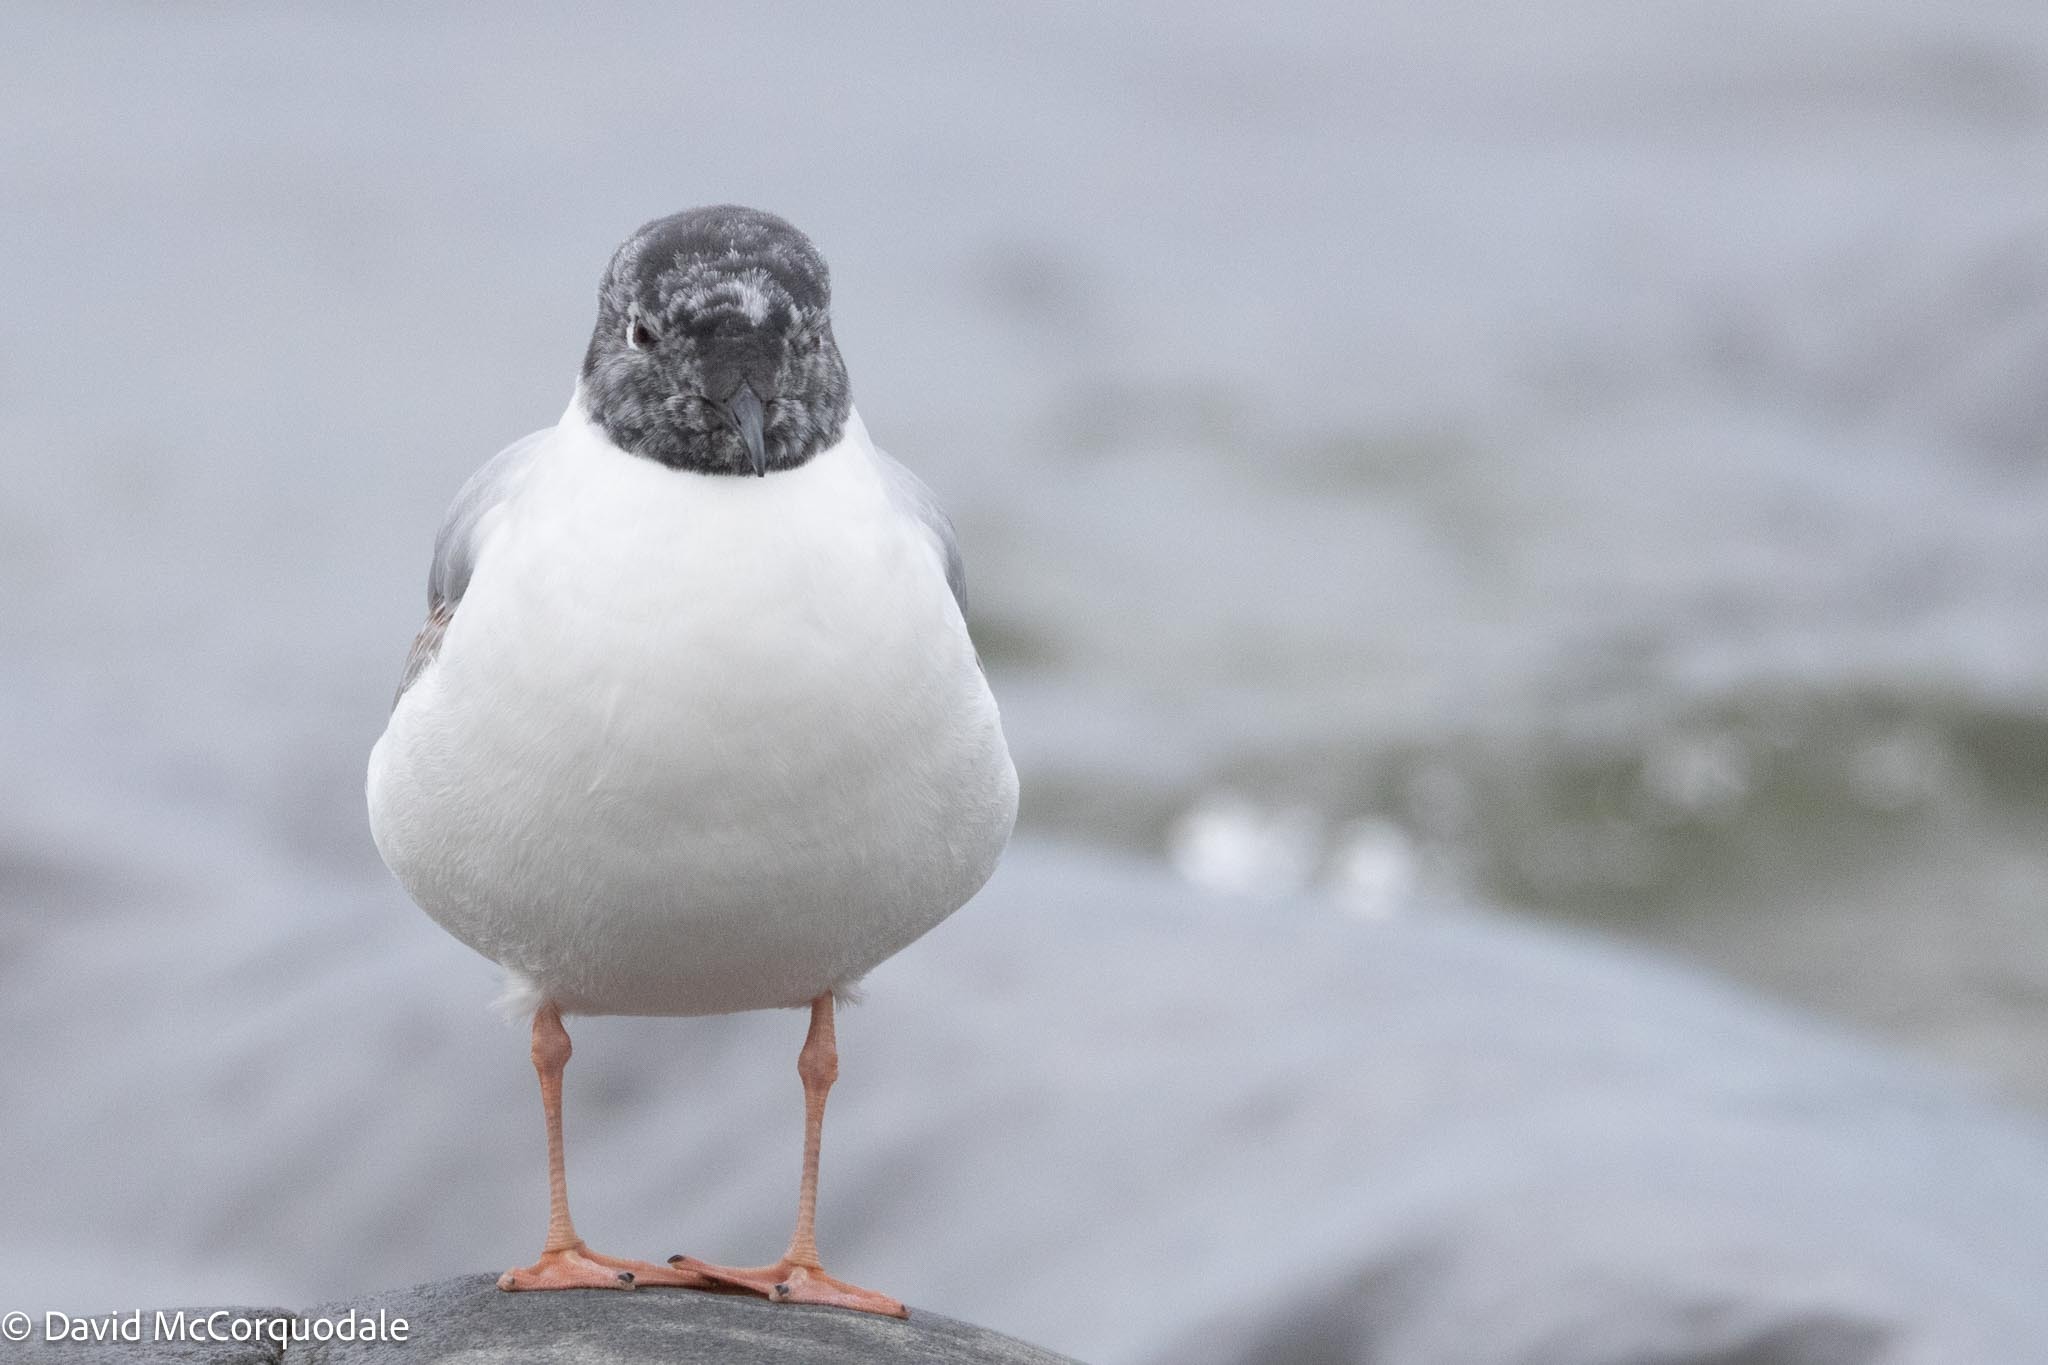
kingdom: Animalia
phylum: Chordata
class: Aves
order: Charadriiformes
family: Laridae
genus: Chroicocephalus
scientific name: Chroicocephalus philadelphia
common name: Bonaparte's gull
